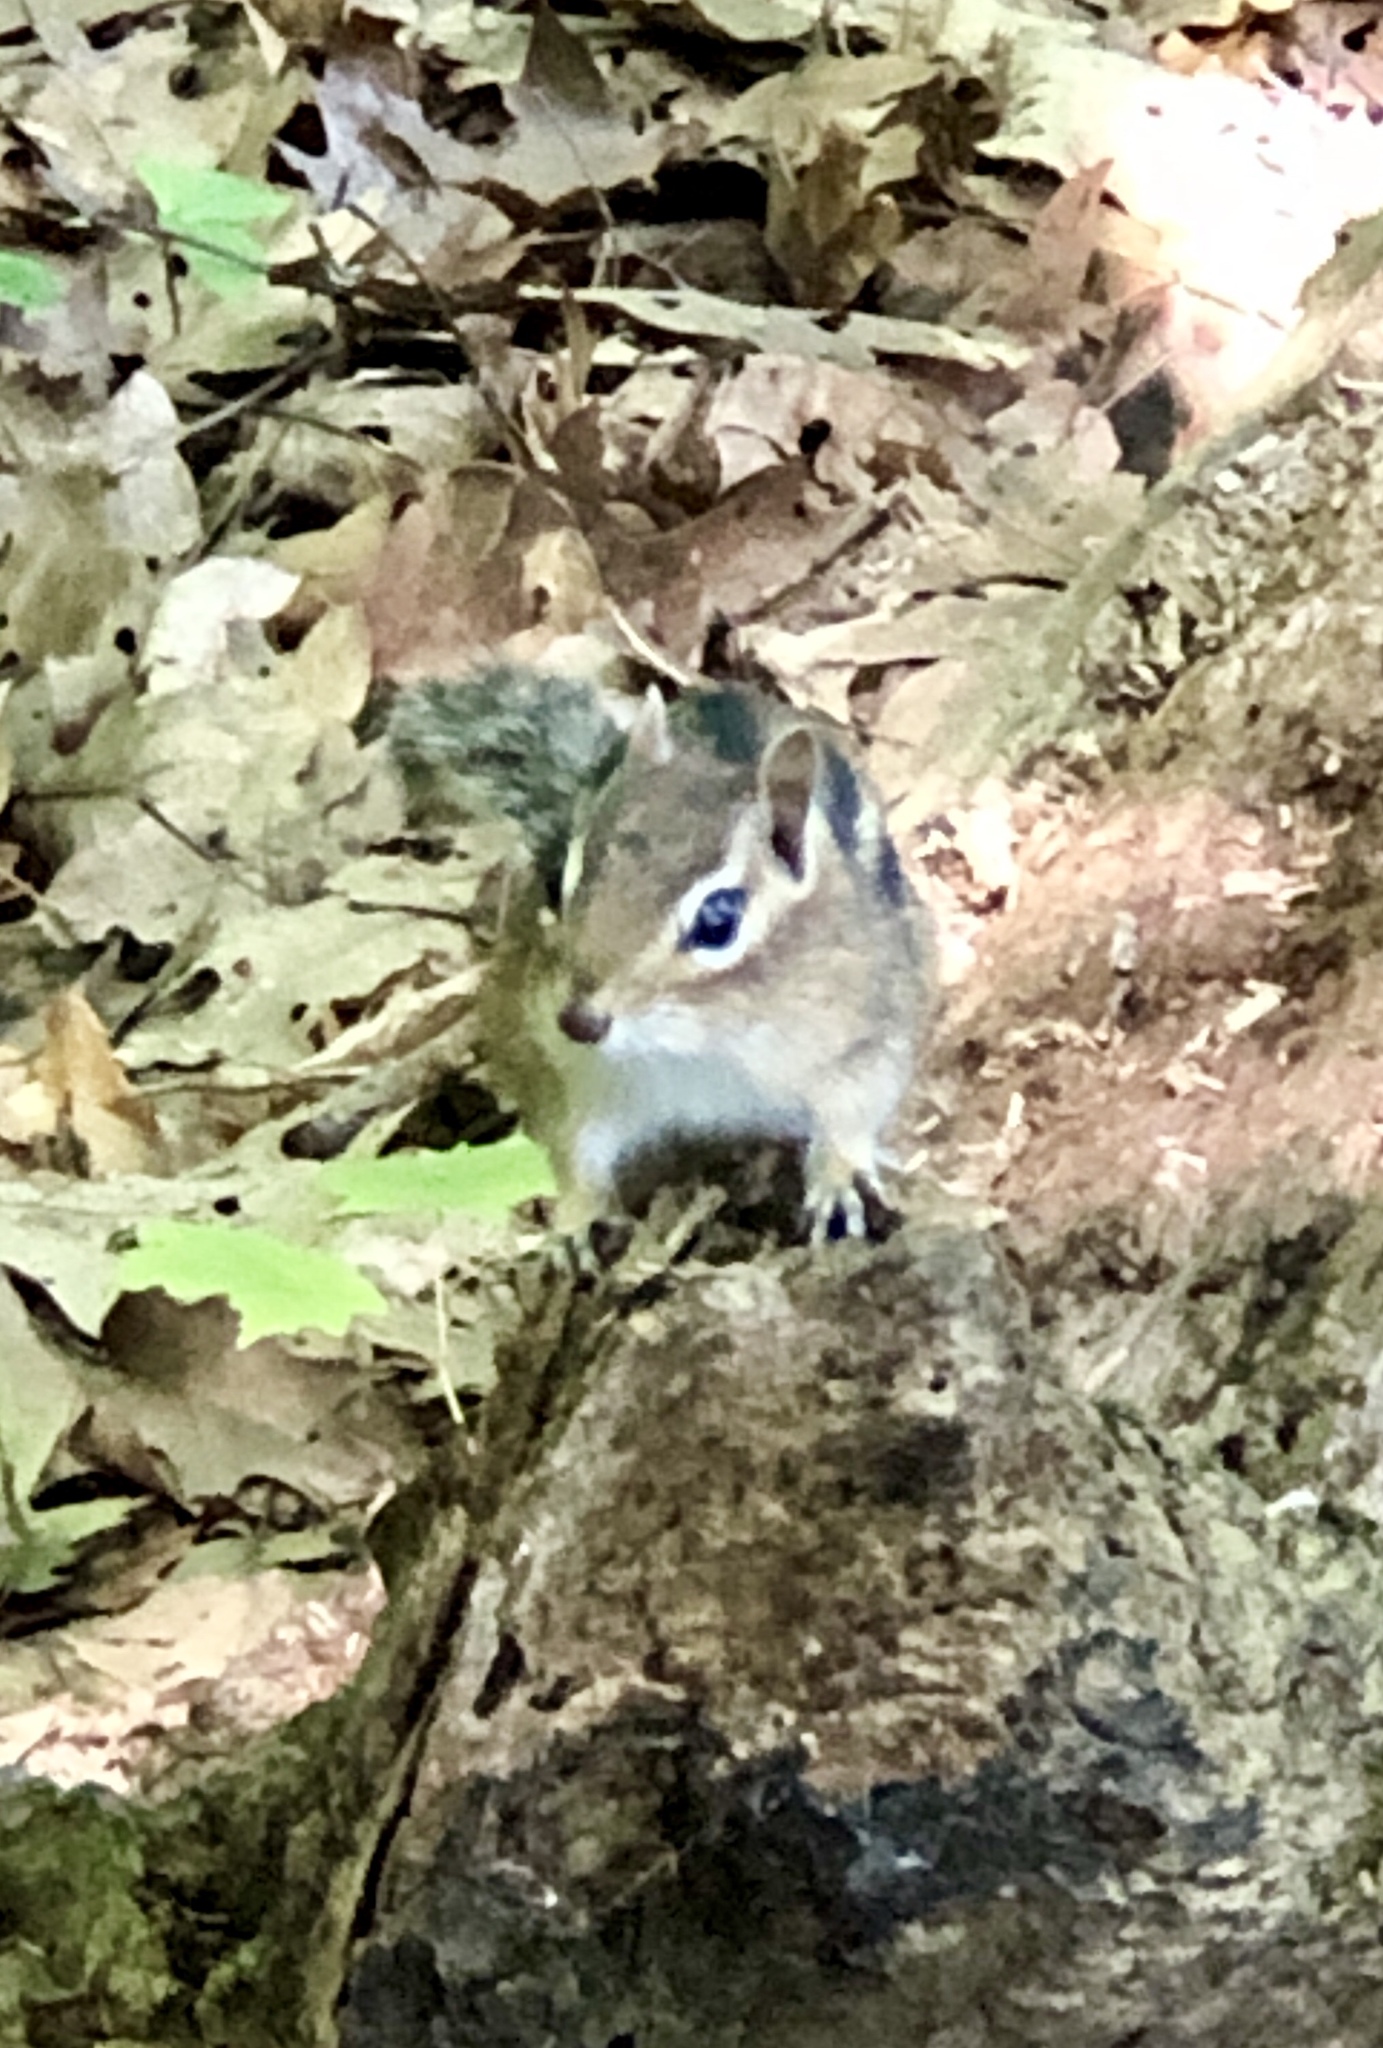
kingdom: Animalia
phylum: Chordata
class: Mammalia
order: Rodentia
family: Sciuridae
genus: Tamias
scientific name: Tamias striatus
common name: Eastern chipmunk
